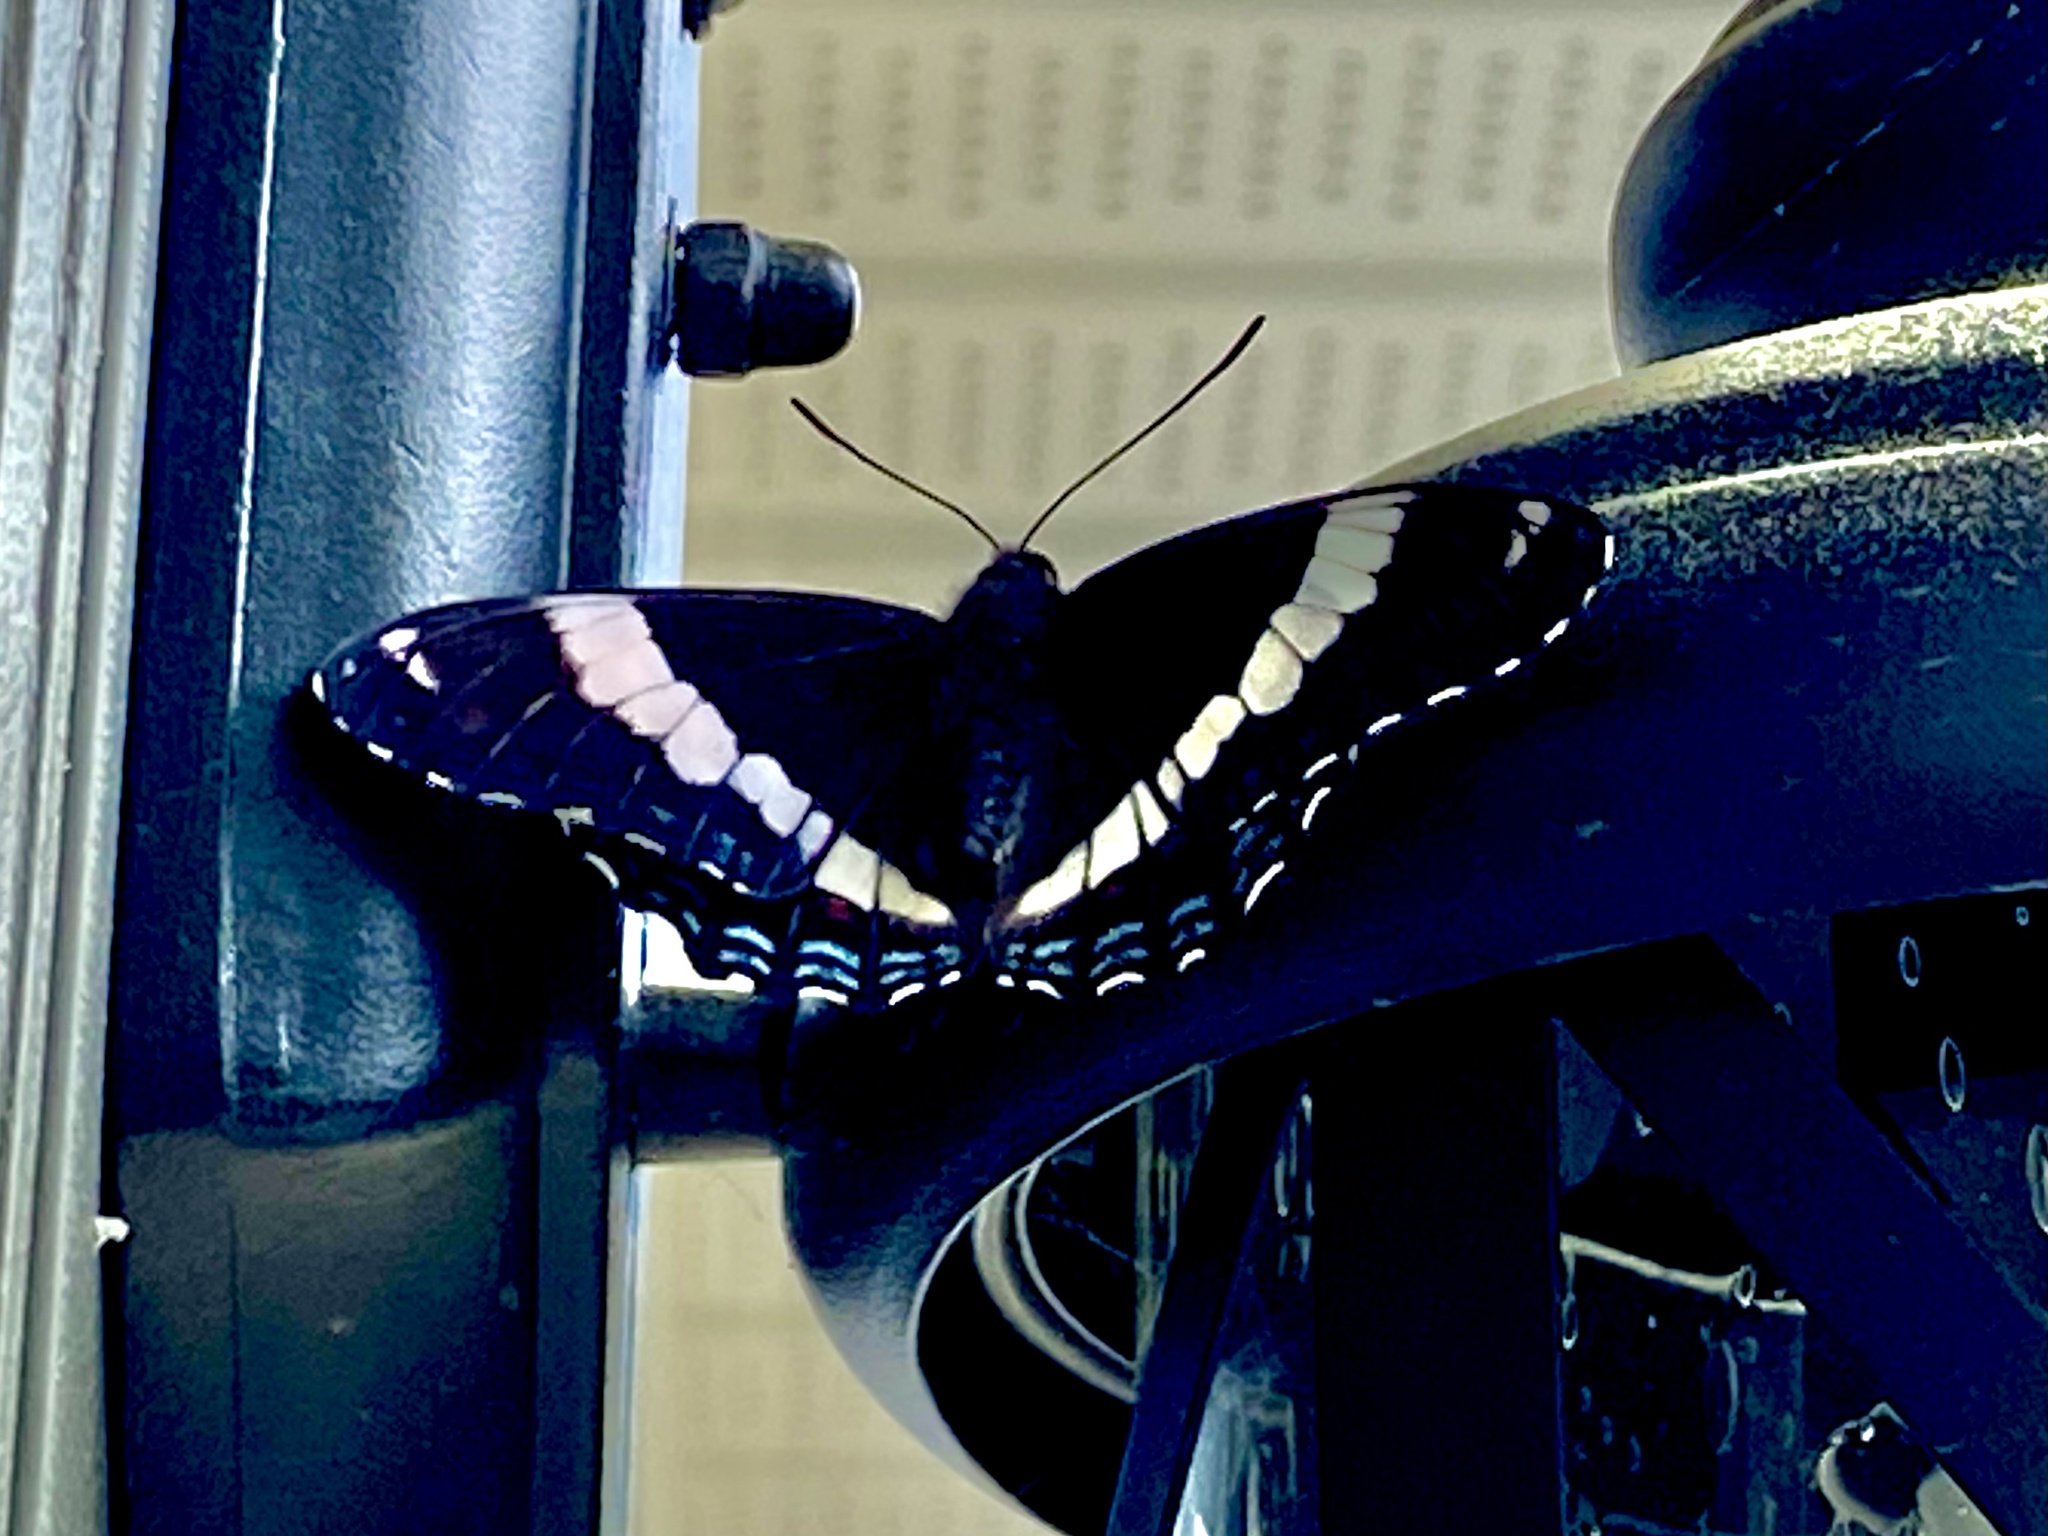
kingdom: Animalia
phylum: Arthropoda
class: Insecta
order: Lepidoptera
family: Nymphalidae
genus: Limenitis
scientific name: Limenitis arthemis
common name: Red-spotted admiral
